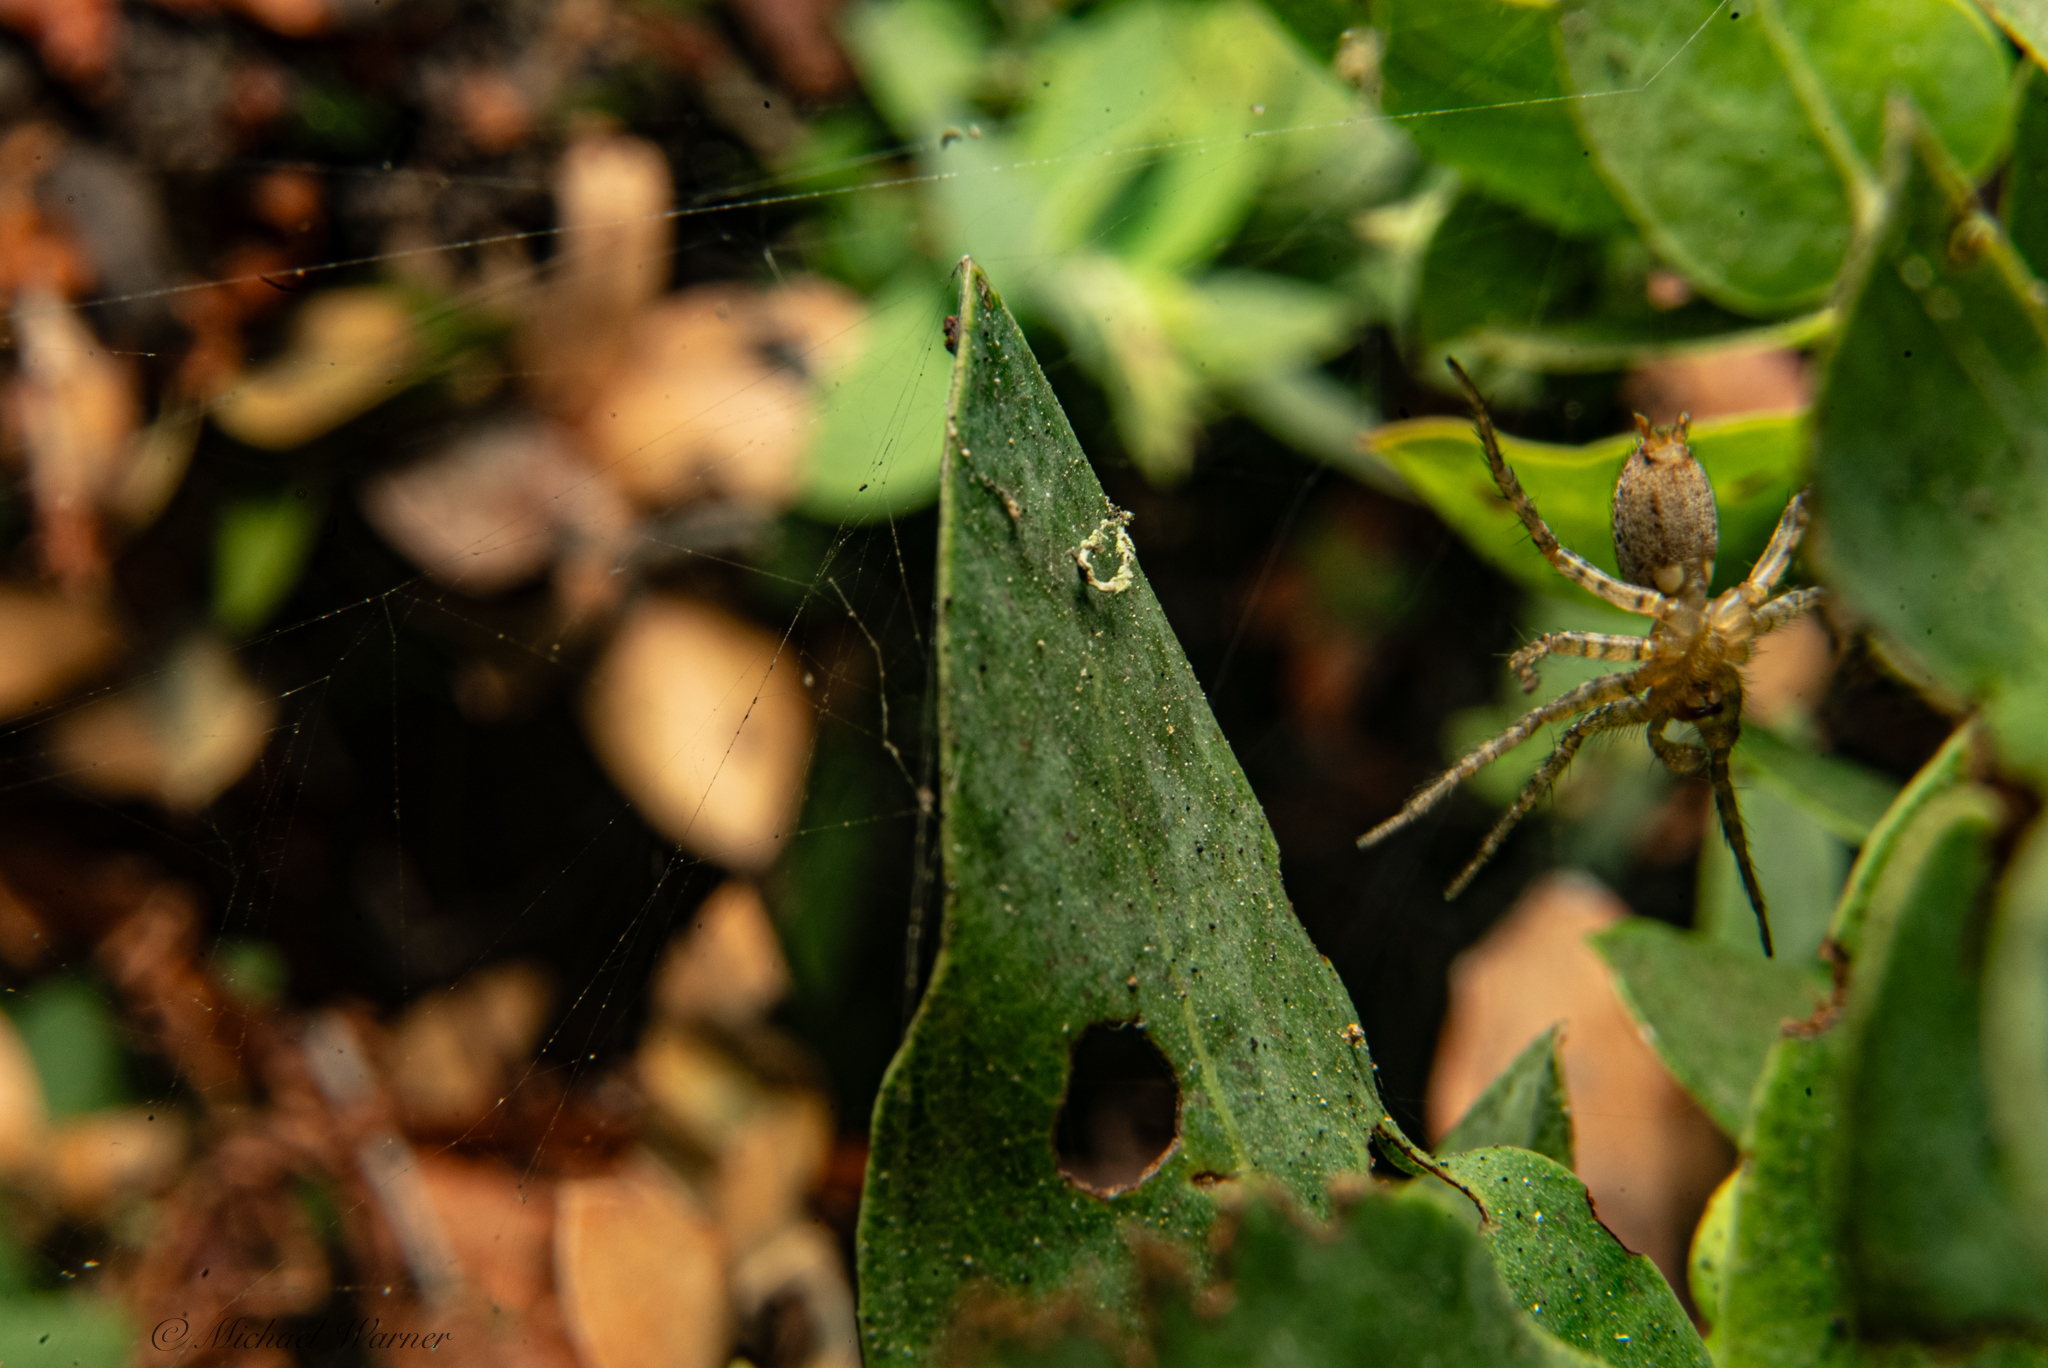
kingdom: Animalia
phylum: Arthropoda
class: Arachnida
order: Araneae
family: Agelenidae
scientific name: Agelenidae
